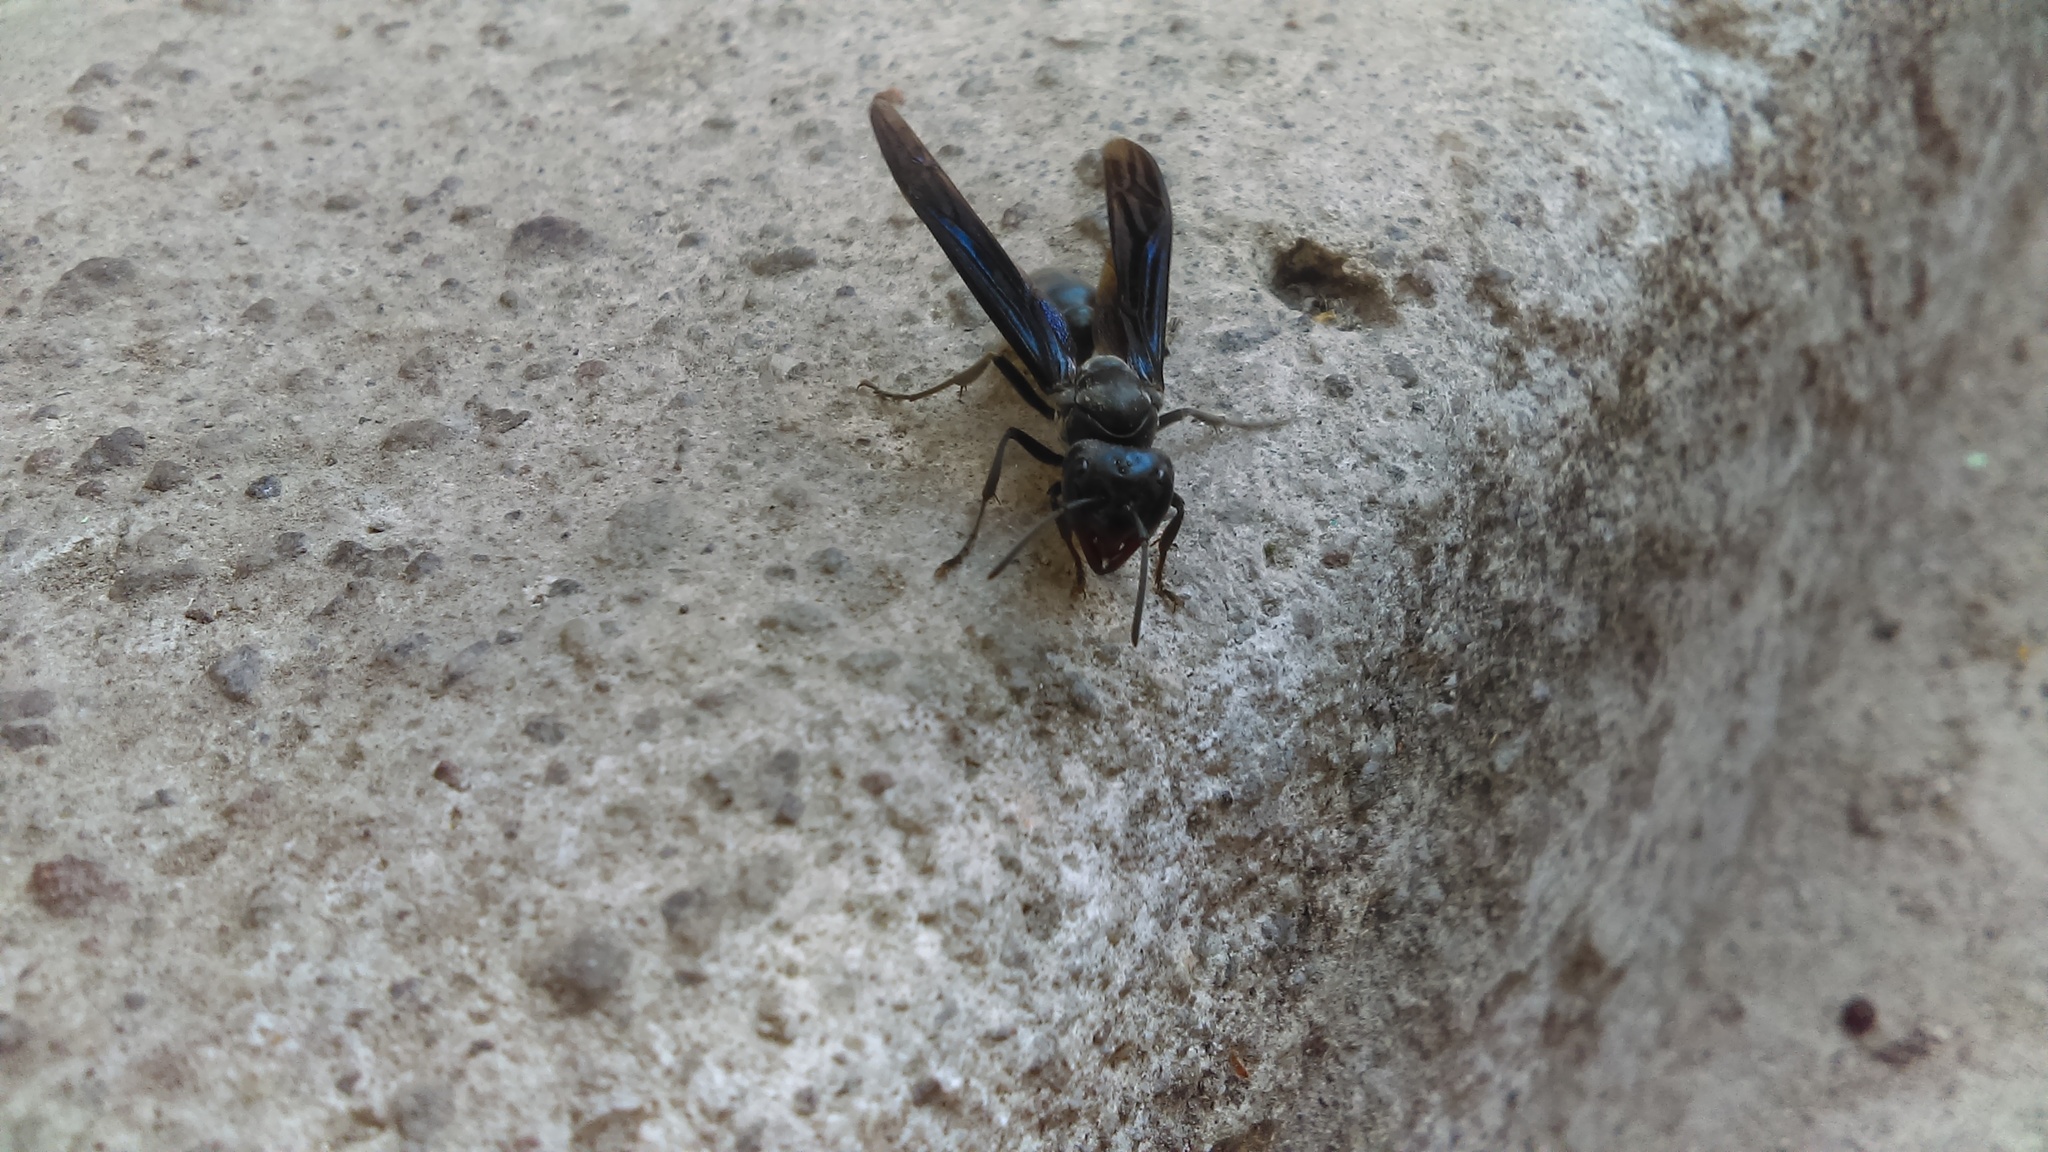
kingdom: Animalia
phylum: Arthropoda
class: Insecta
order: Hymenoptera
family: Vespidae
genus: Synoeca
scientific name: Synoeca septentrionalis
